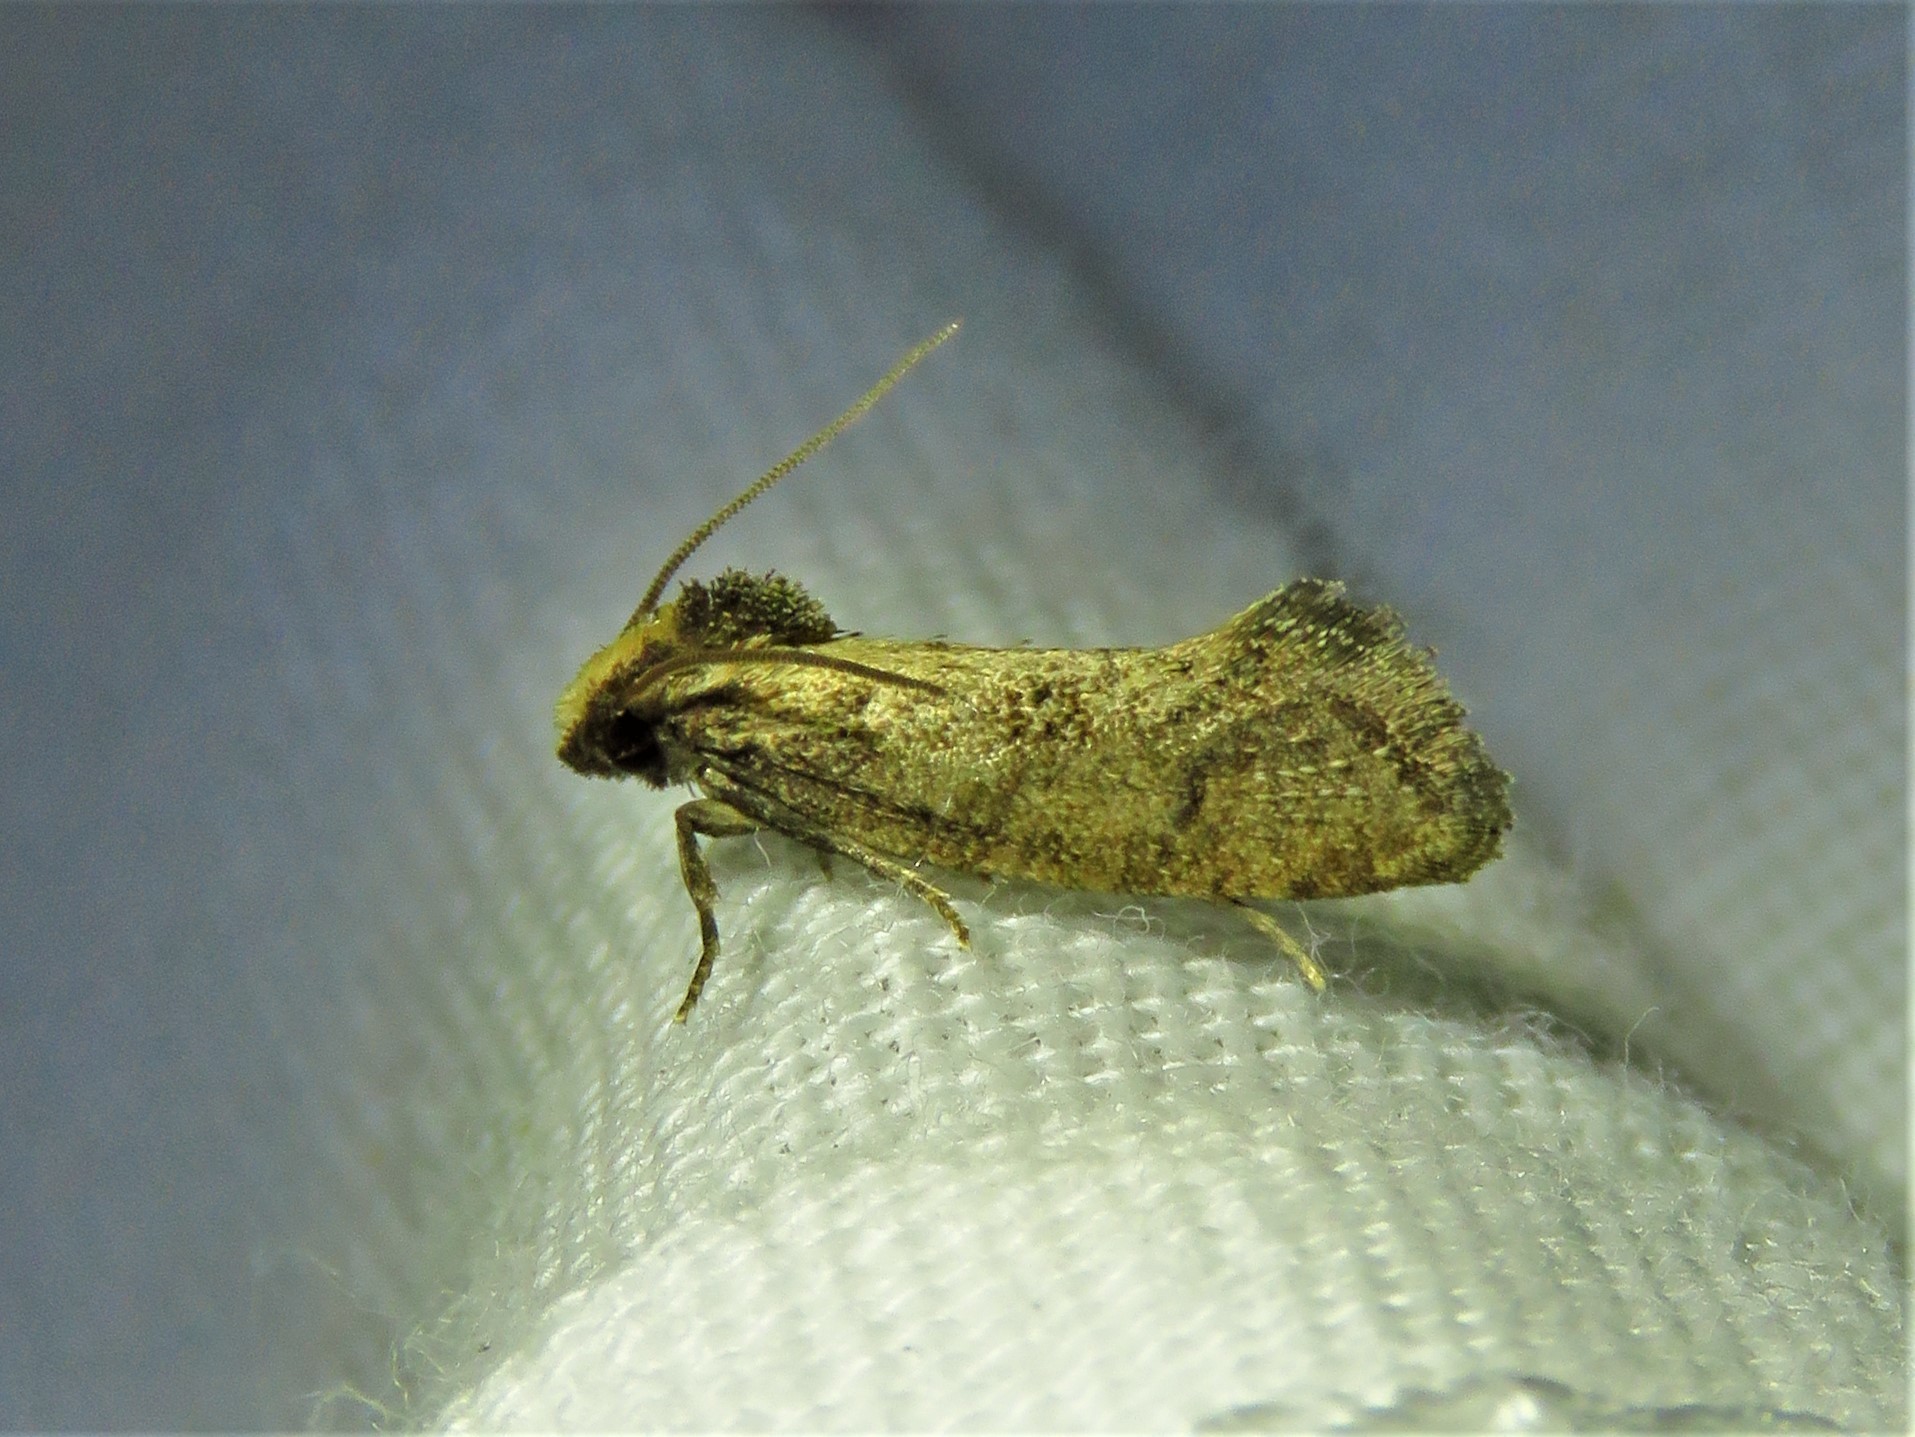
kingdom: Animalia
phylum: Arthropoda
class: Insecta
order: Lepidoptera
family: Tineidae
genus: Acrolophus
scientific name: Acrolophus texanella
